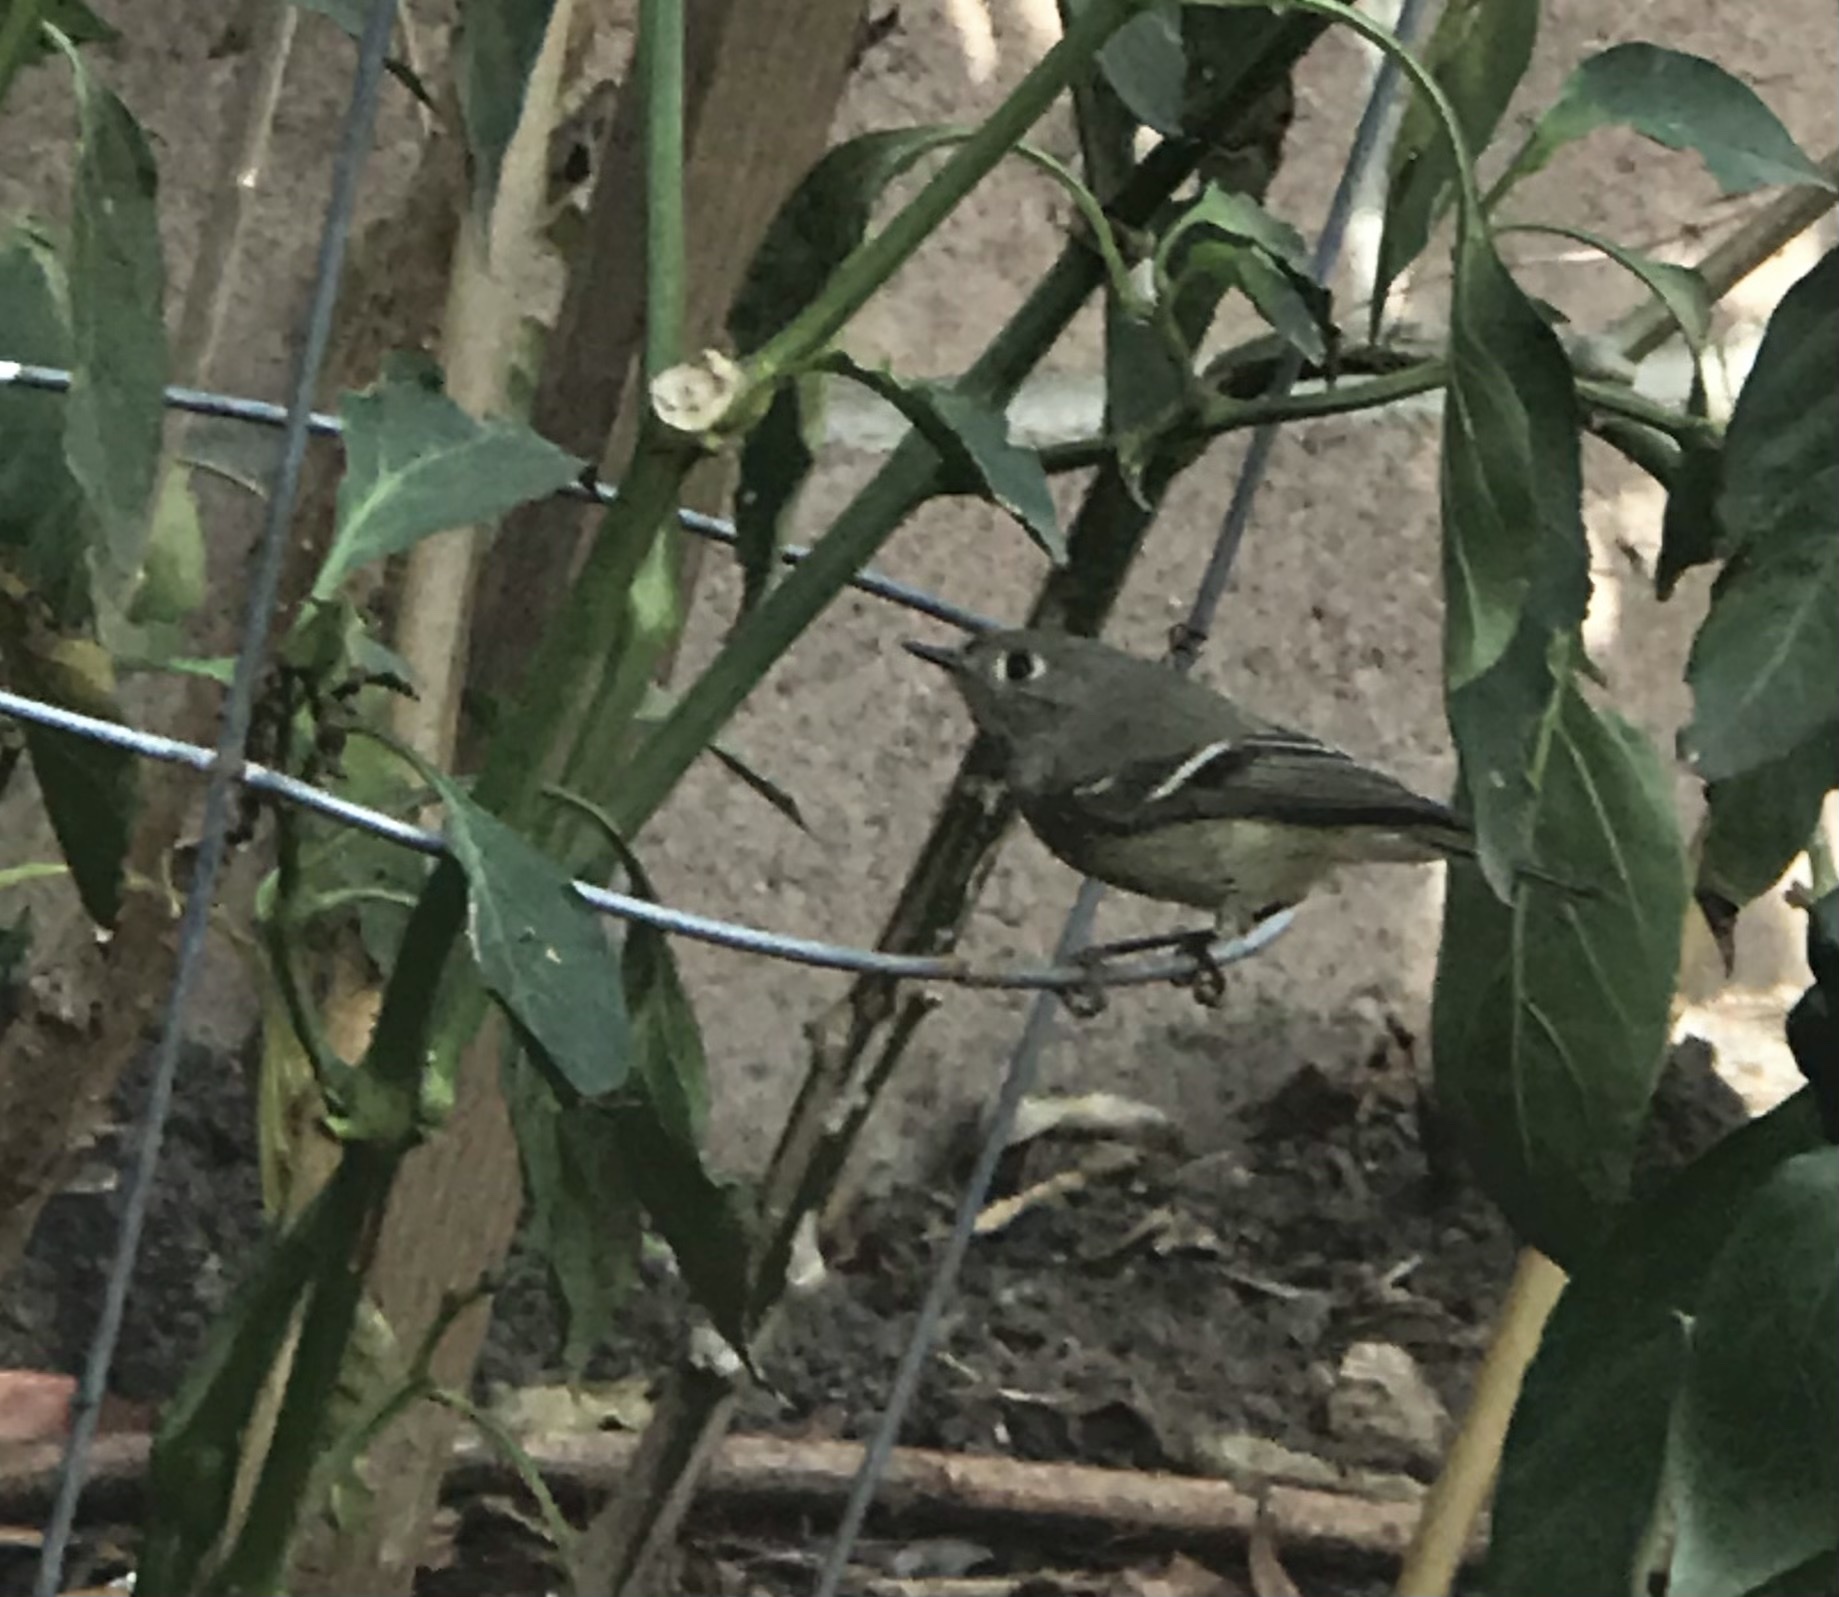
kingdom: Animalia
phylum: Chordata
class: Aves
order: Passeriformes
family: Regulidae
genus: Regulus
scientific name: Regulus calendula
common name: Ruby-crowned kinglet
